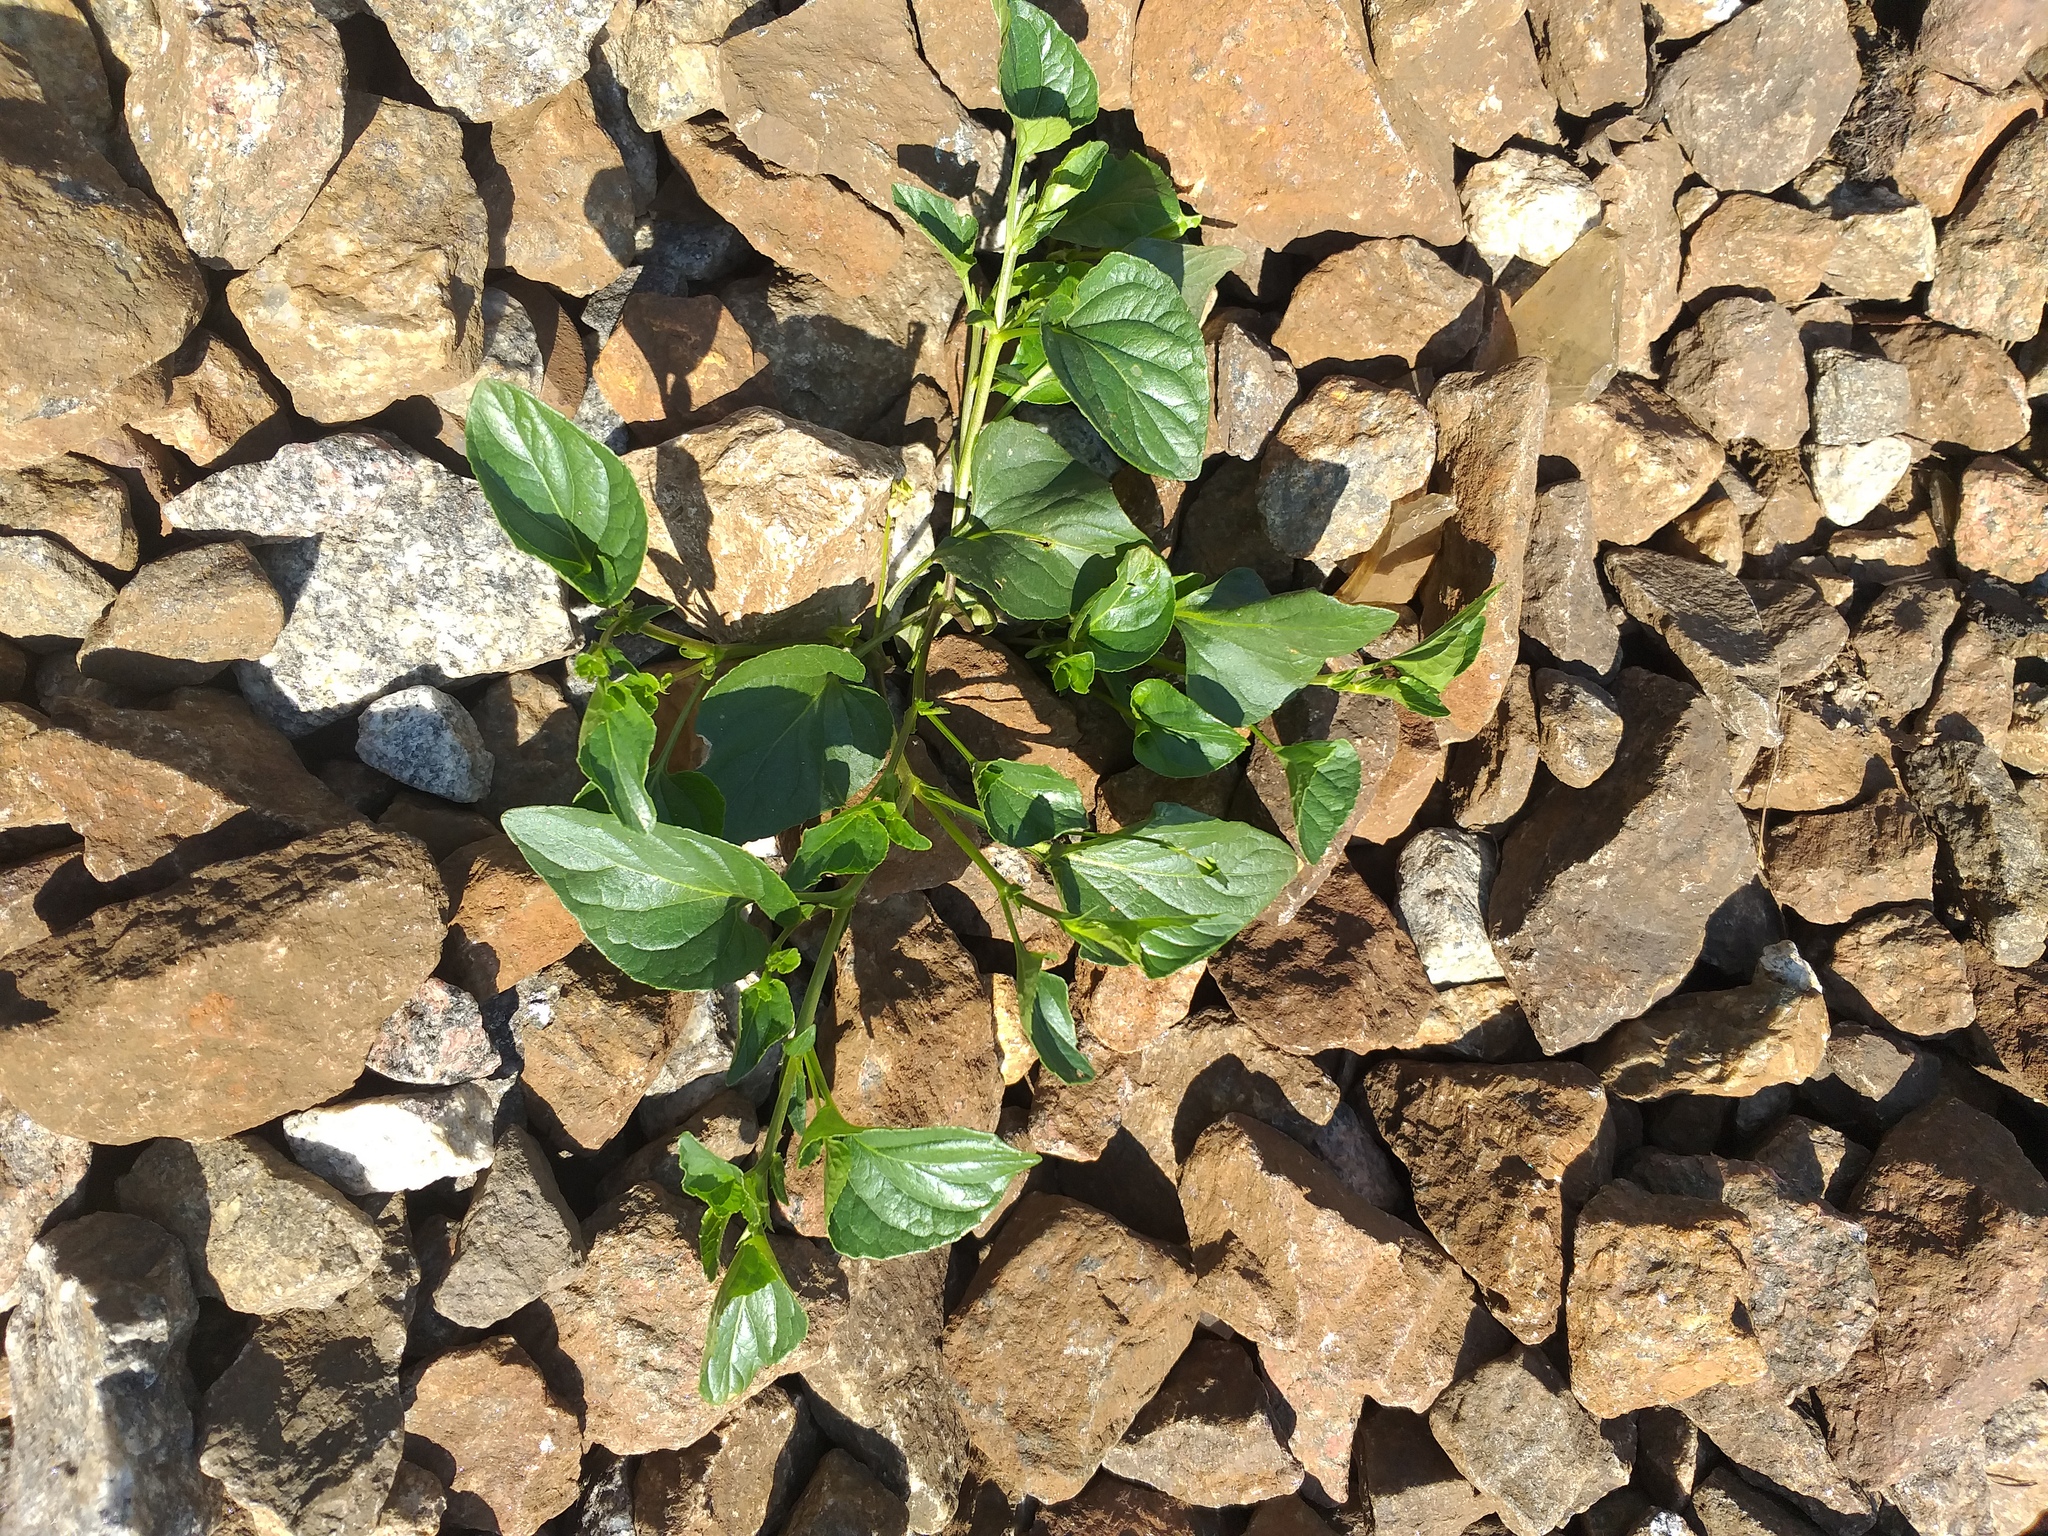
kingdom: Plantae
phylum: Tracheophyta
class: Magnoliopsida
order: Malpighiales
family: Violaceae
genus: Viola
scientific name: Viola canina
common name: Heath dog-violet
